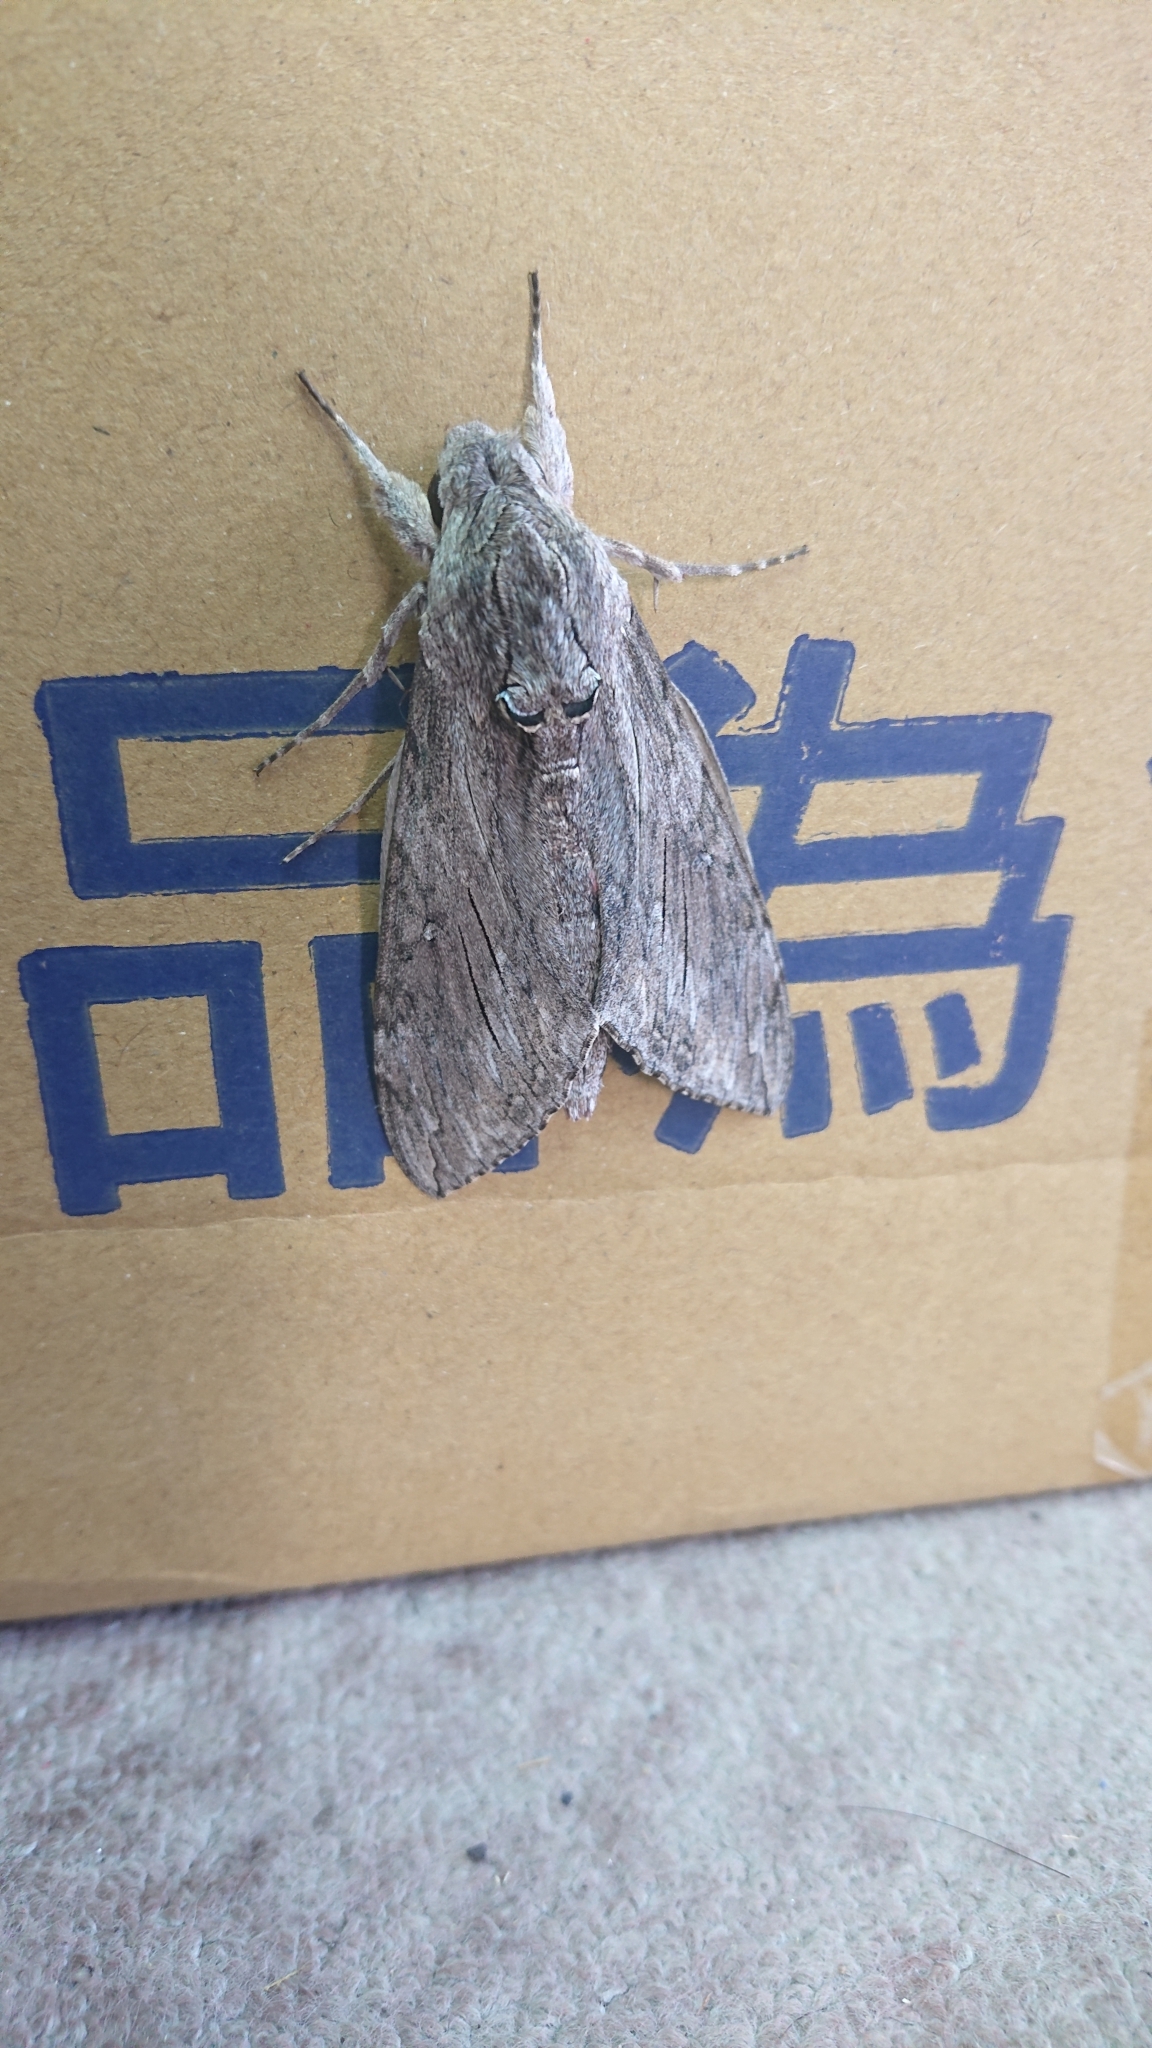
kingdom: Animalia
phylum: Arthropoda
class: Insecta
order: Lepidoptera
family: Sphingidae
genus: Agrius
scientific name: Agrius convolvuli
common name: Convolvulus hawkmoth
